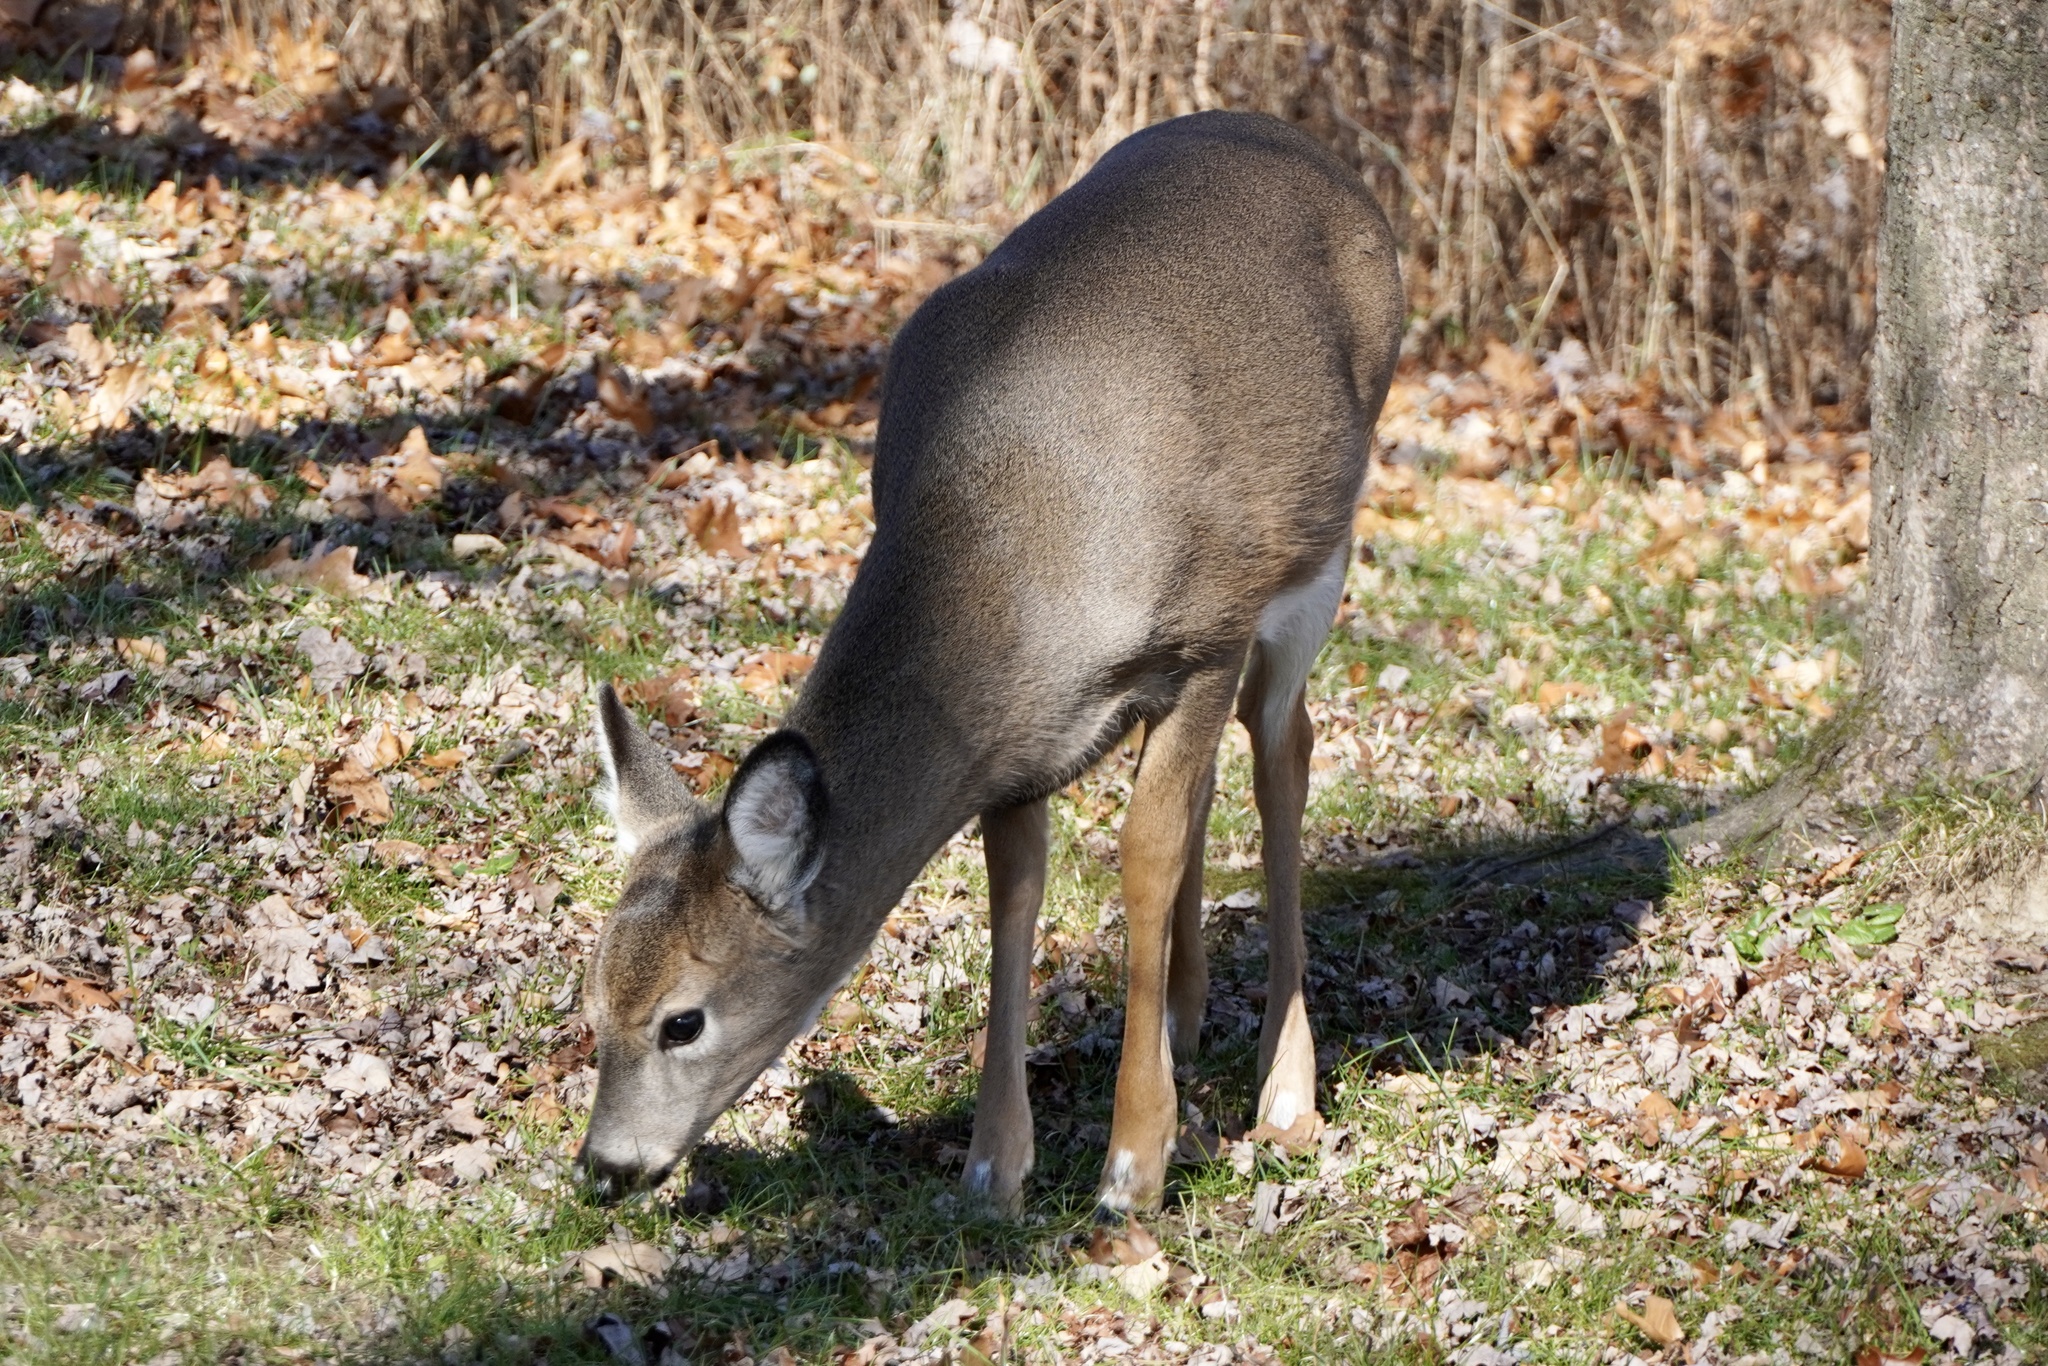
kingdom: Animalia
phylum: Chordata
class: Mammalia
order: Artiodactyla
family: Cervidae
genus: Odocoileus
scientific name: Odocoileus virginianus
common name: White-tailed deer
